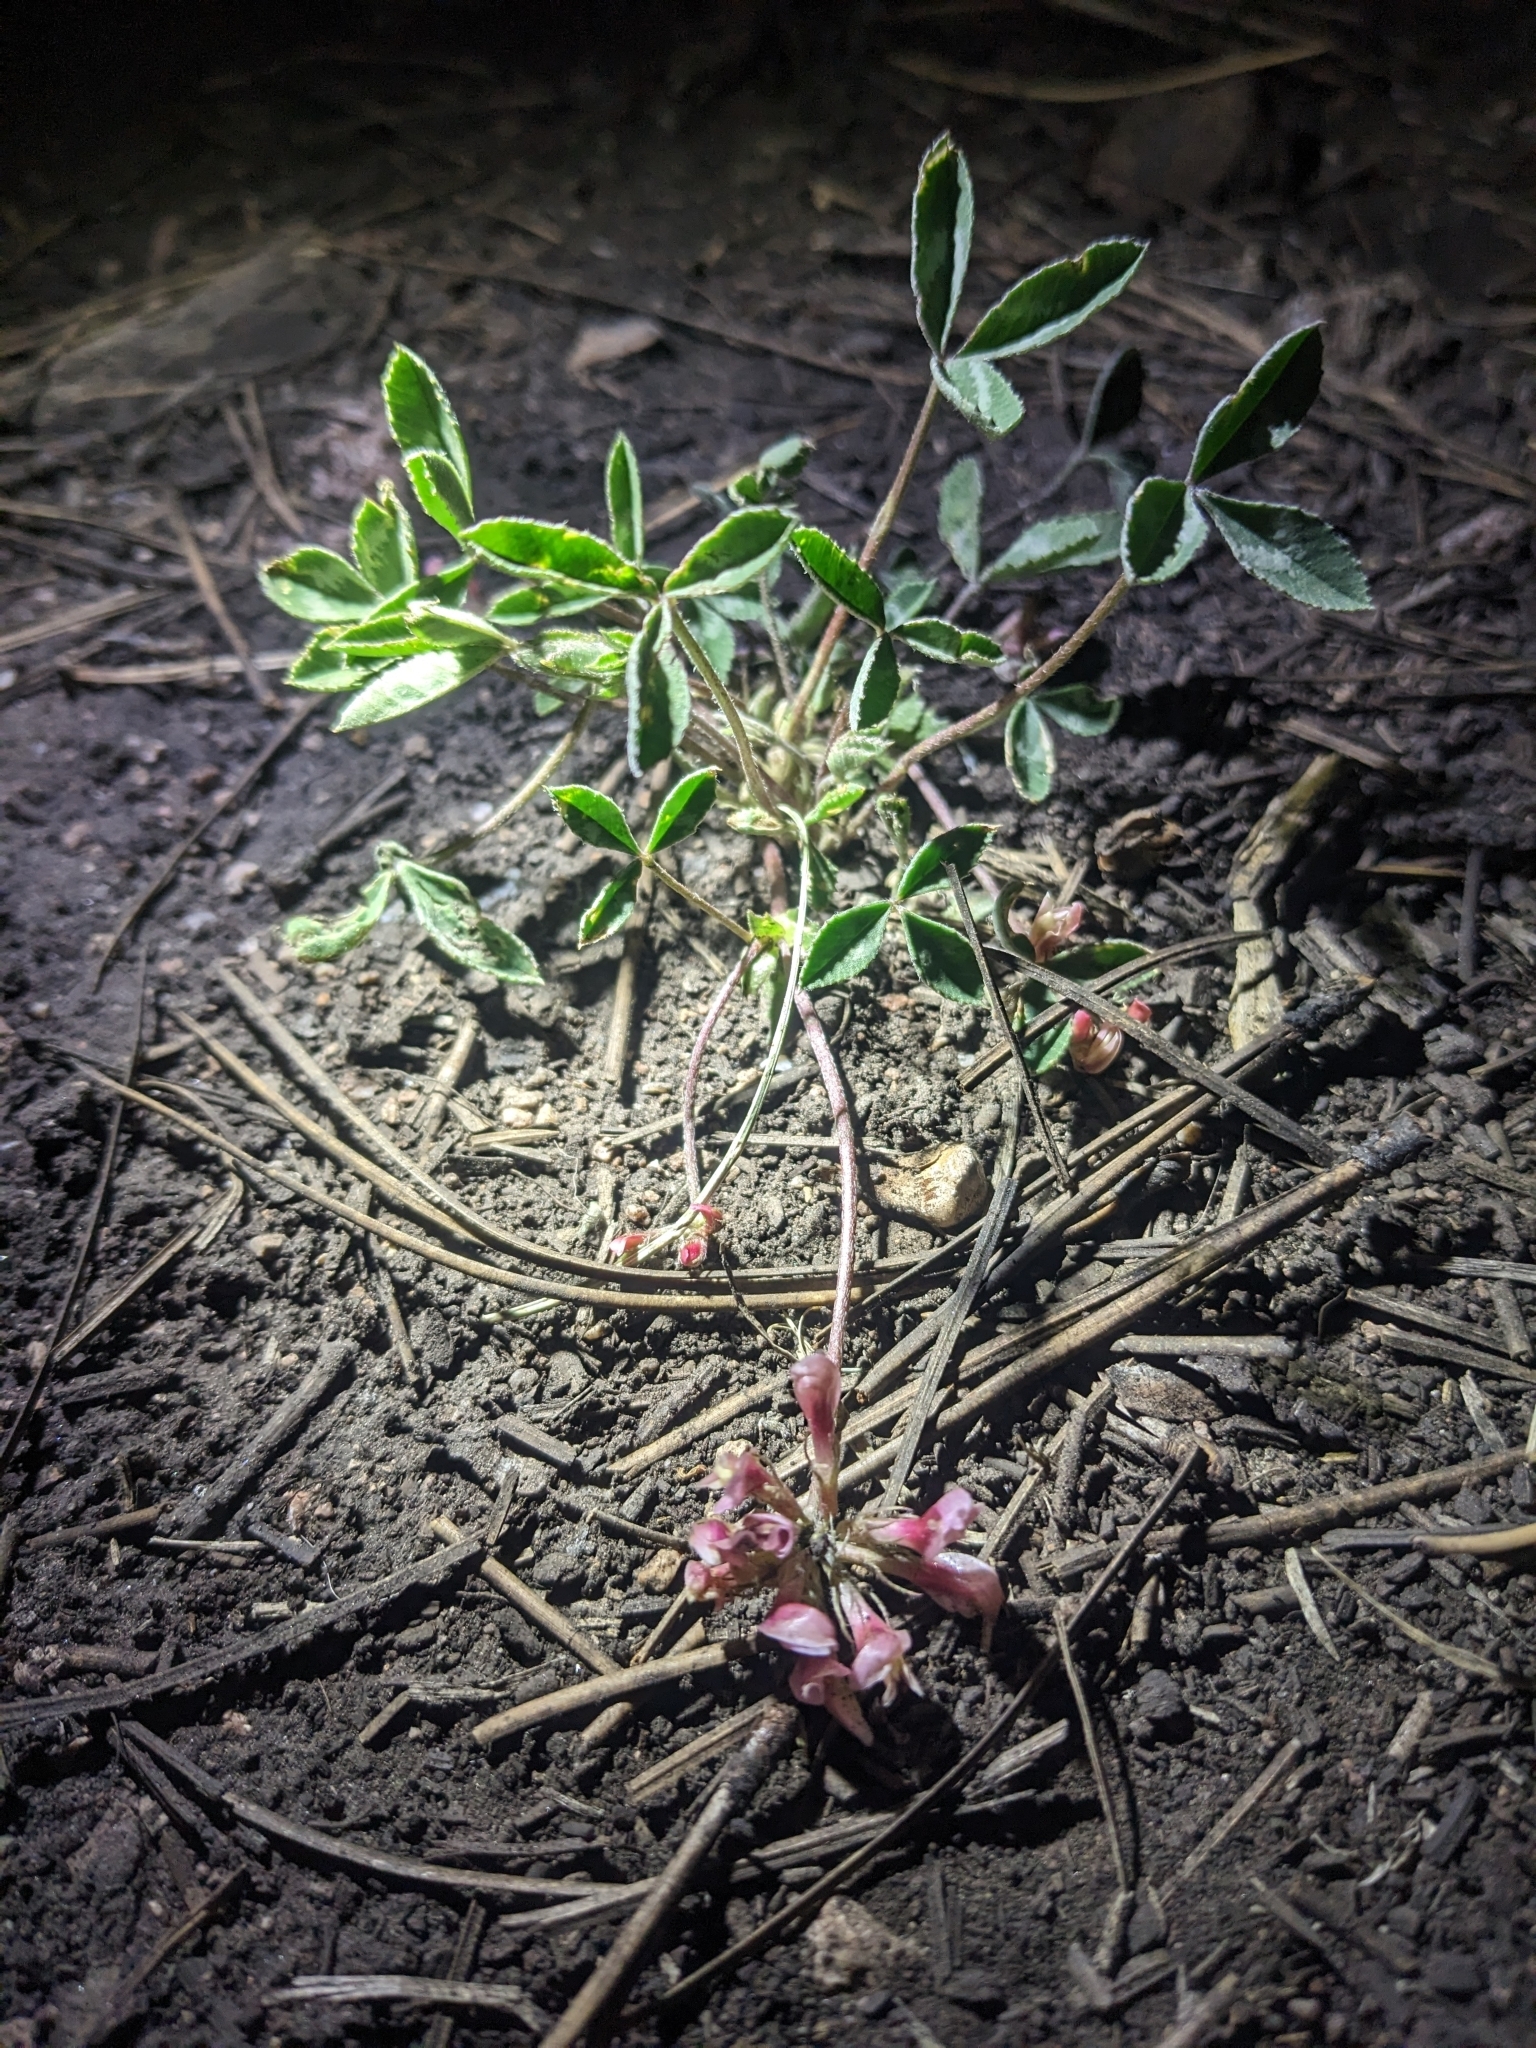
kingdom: Plantae
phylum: Tracheophyta
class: Magnoliopsida
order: Fabales
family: Fabaceae
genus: Trifolium
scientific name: Trifolium gymnocarpon
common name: Tufted clover
